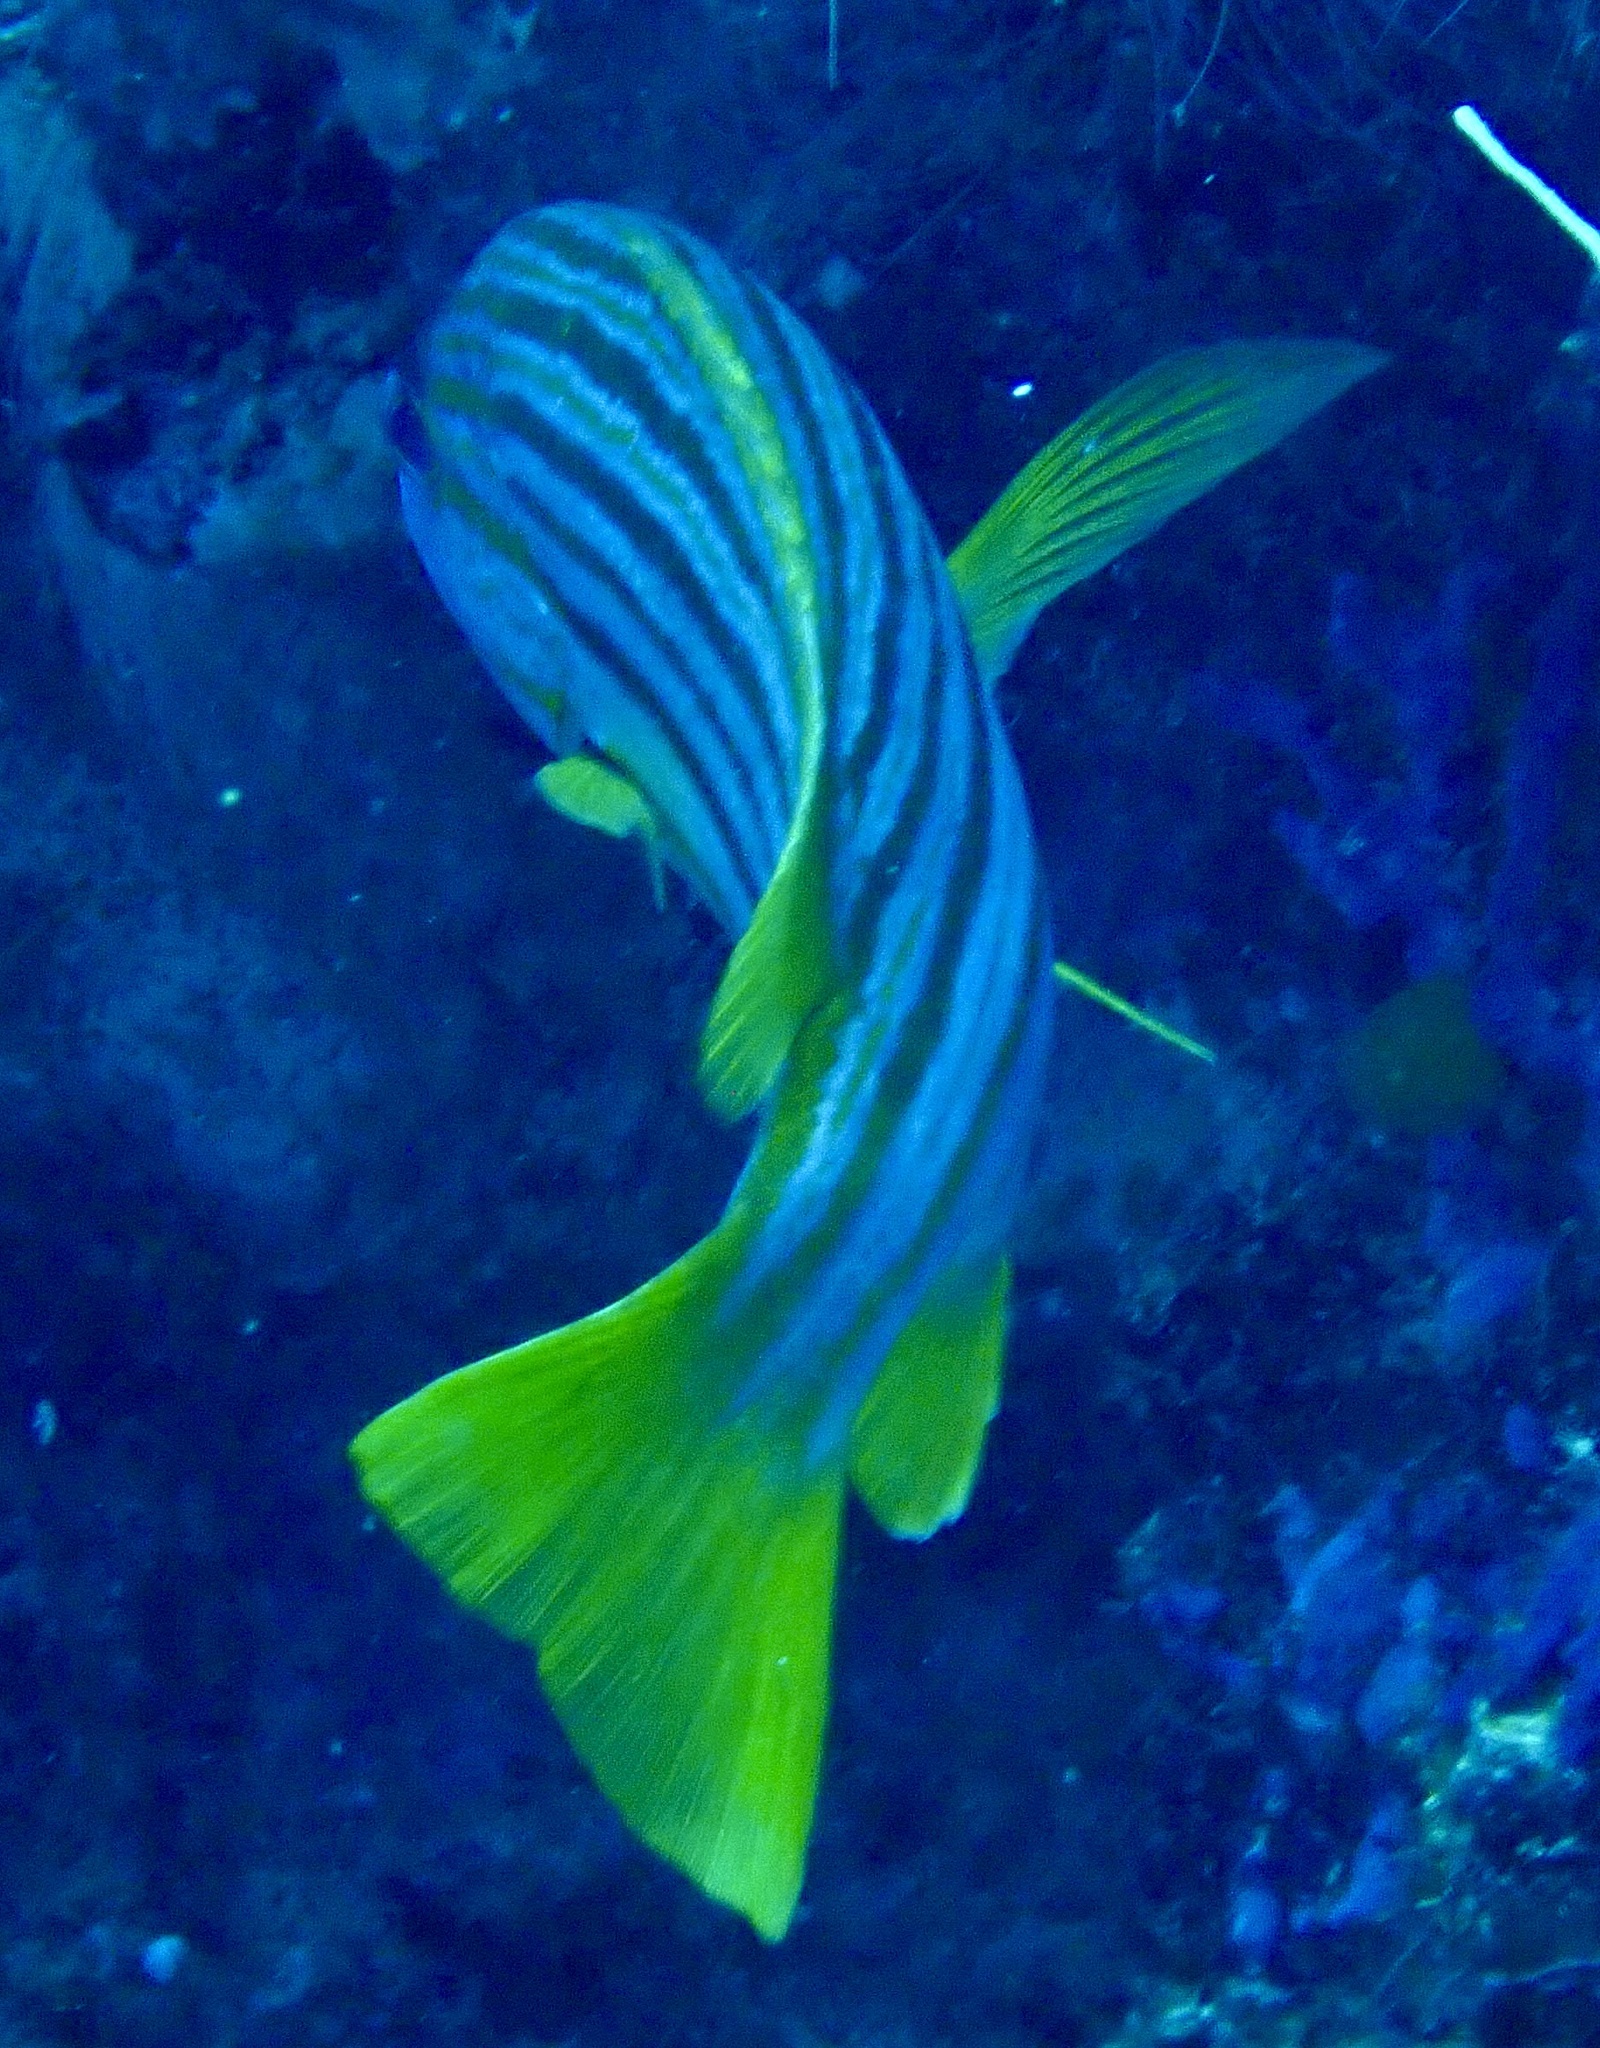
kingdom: Animalia
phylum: Chordata
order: Perciformes
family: Lutjanidae
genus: Lutjanus
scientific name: Lutjanus carponotatus
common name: Spanish flag
